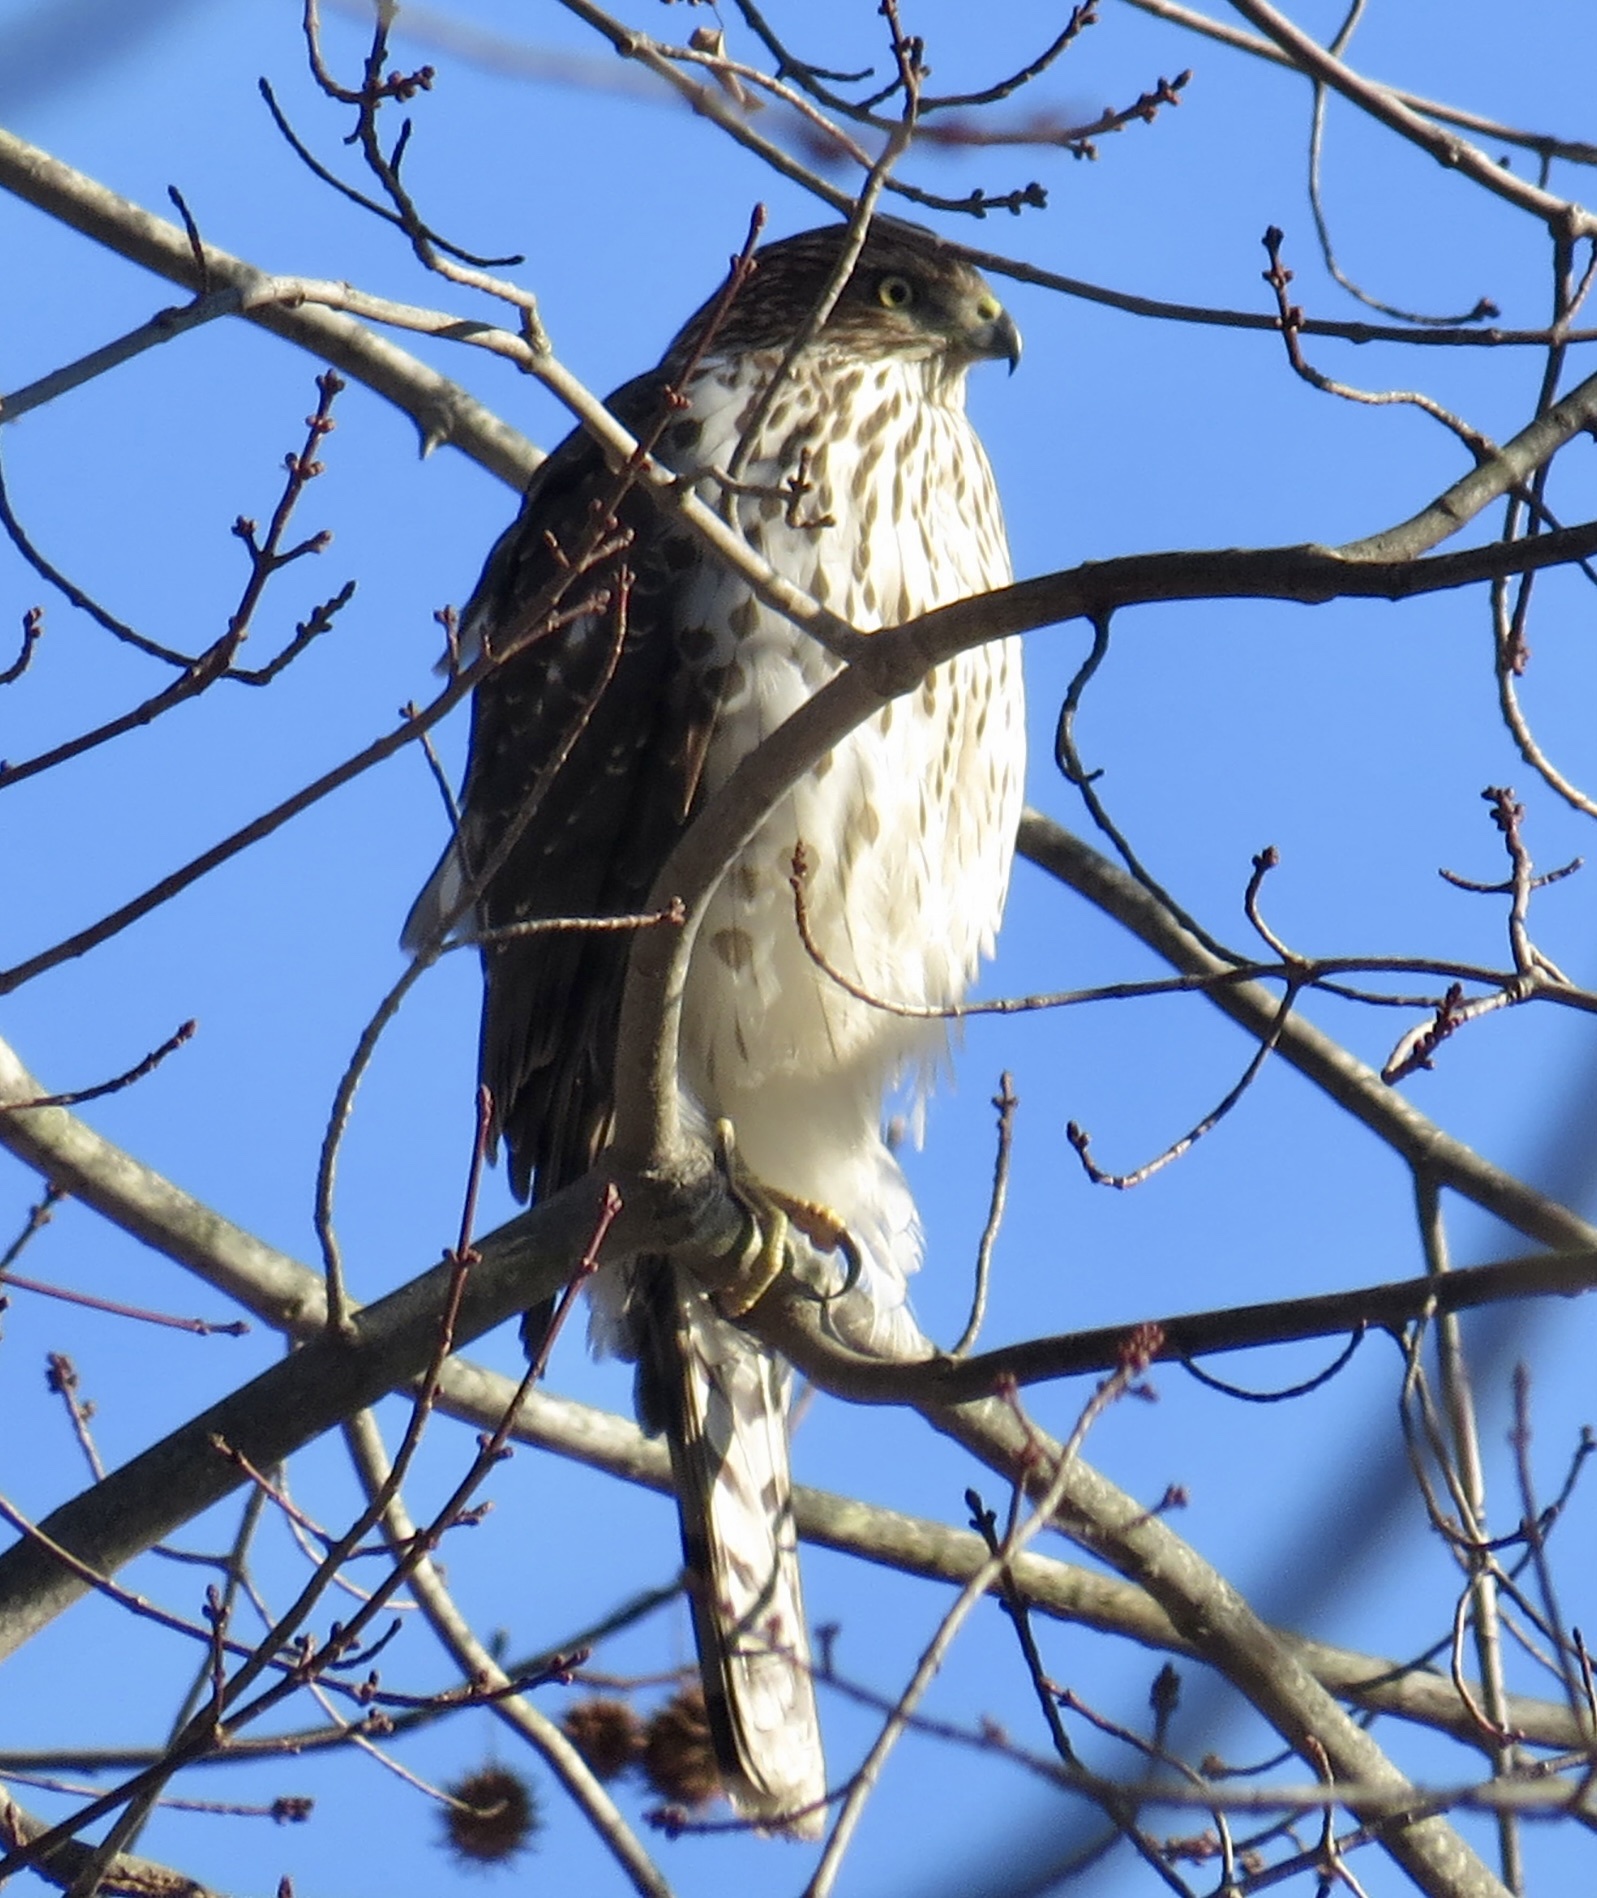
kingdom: Animalia
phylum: Chordata
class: Aves
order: Accipitriformes
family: Accipitridae
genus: Accipiter
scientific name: Accipiter cooperii
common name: Cooper's hawk
